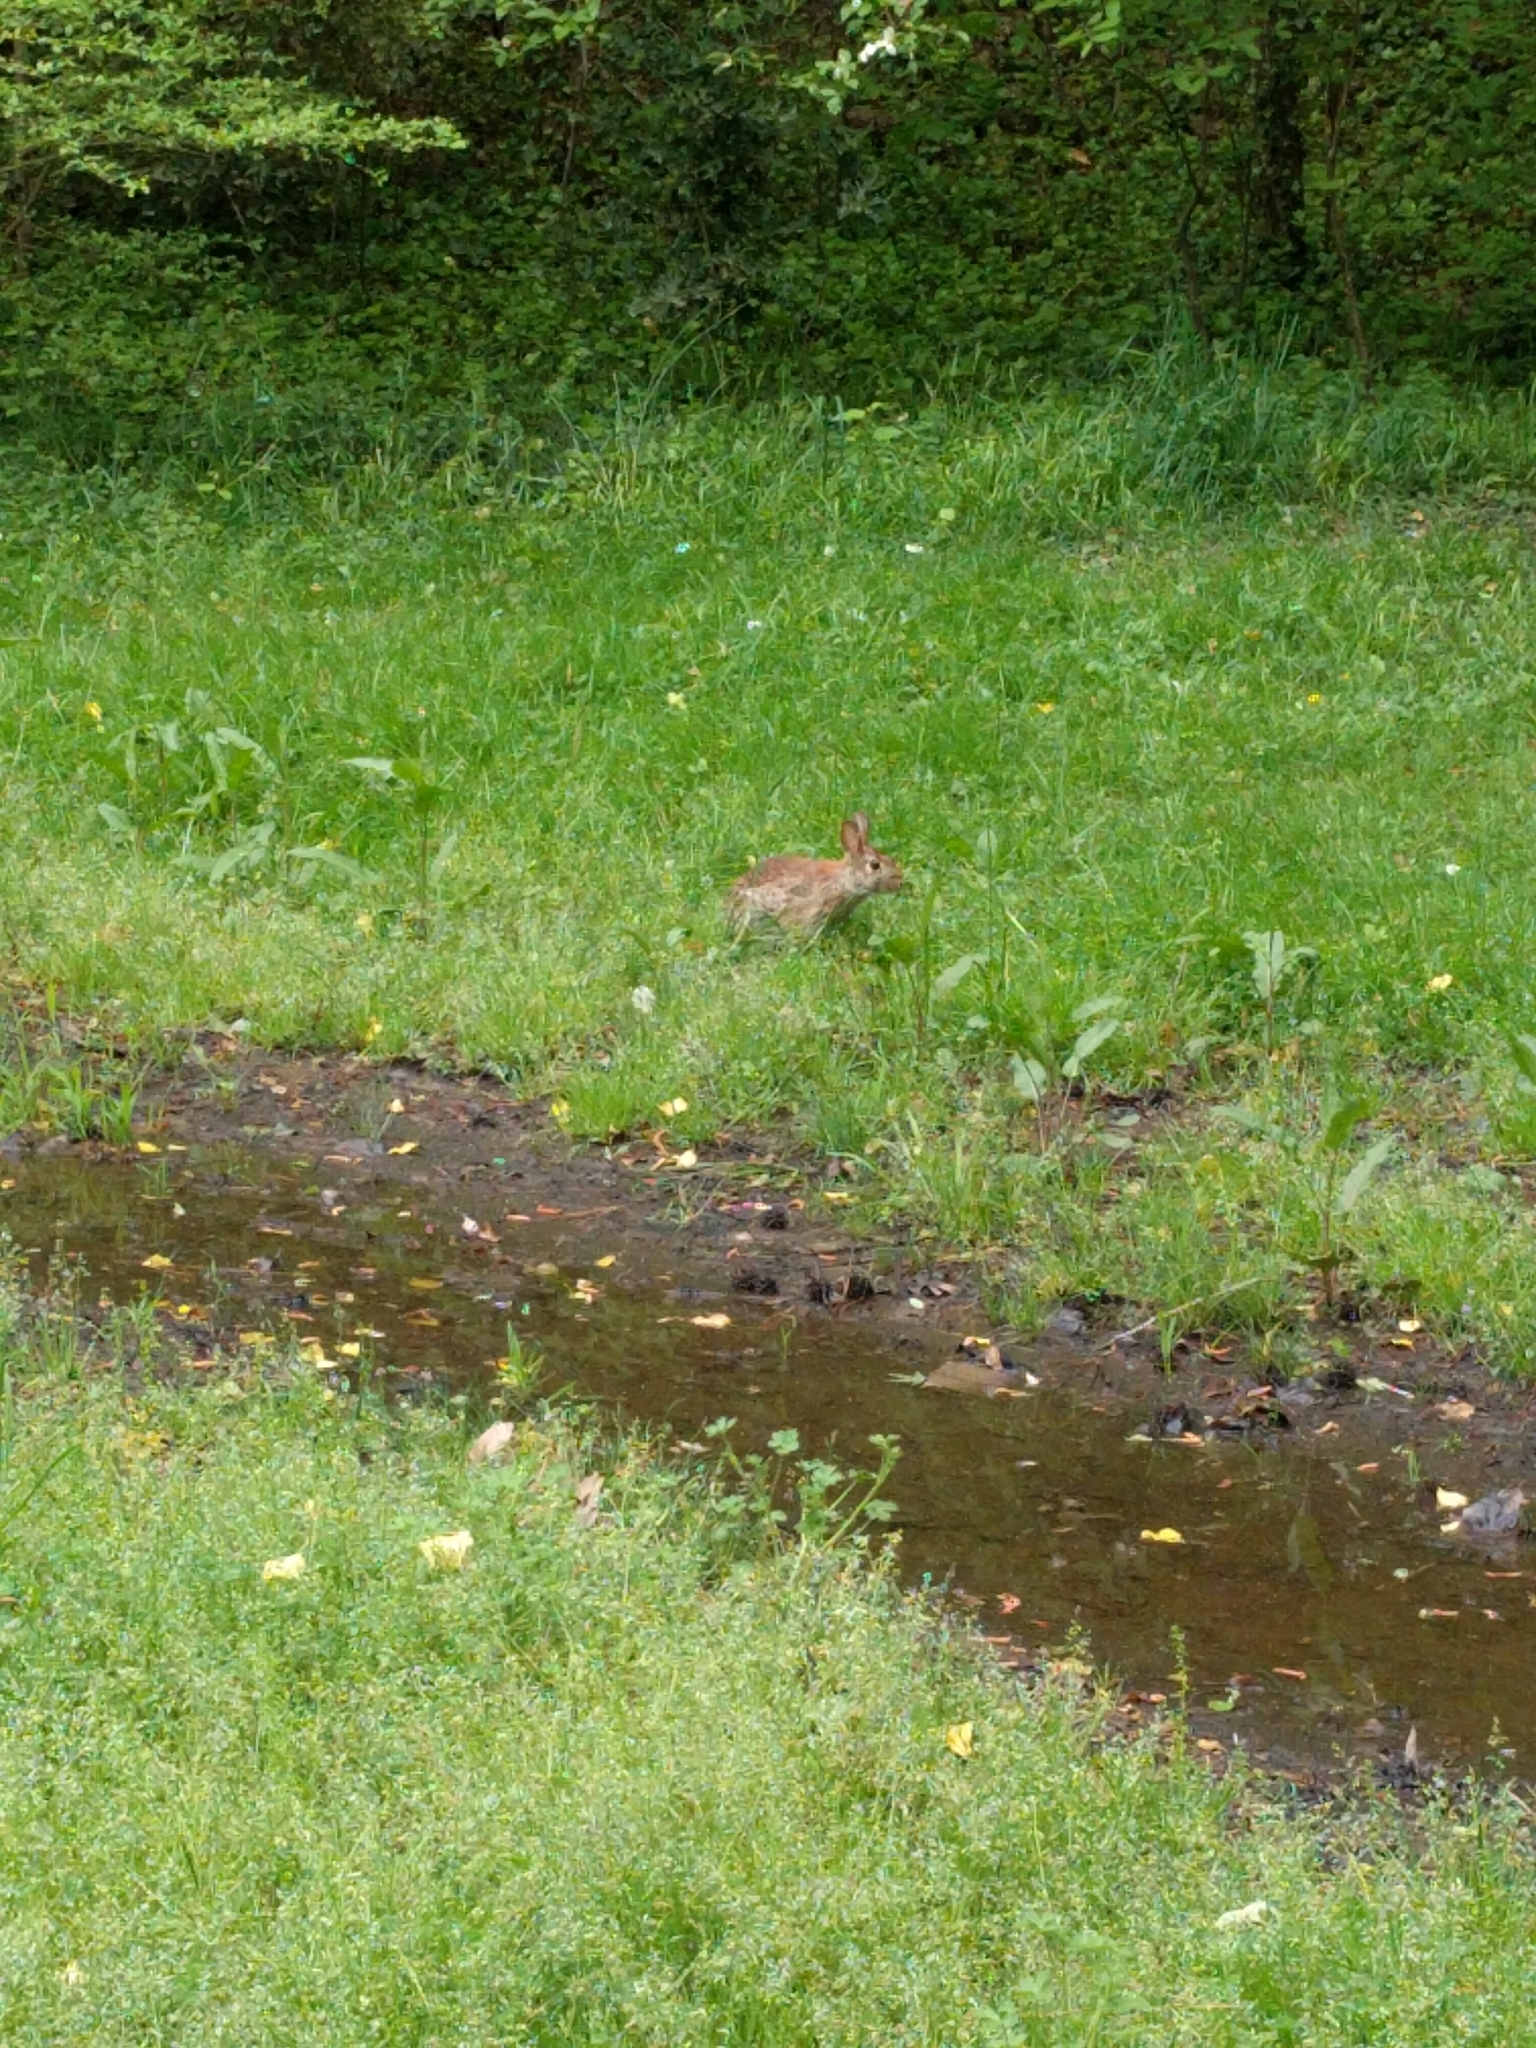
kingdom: Animalia
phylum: Chordata
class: Mammalia
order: Lagomorpha
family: Leporidae
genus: Sylvilagus
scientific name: Sylvilagus floridanus
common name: Eastern cottontail
